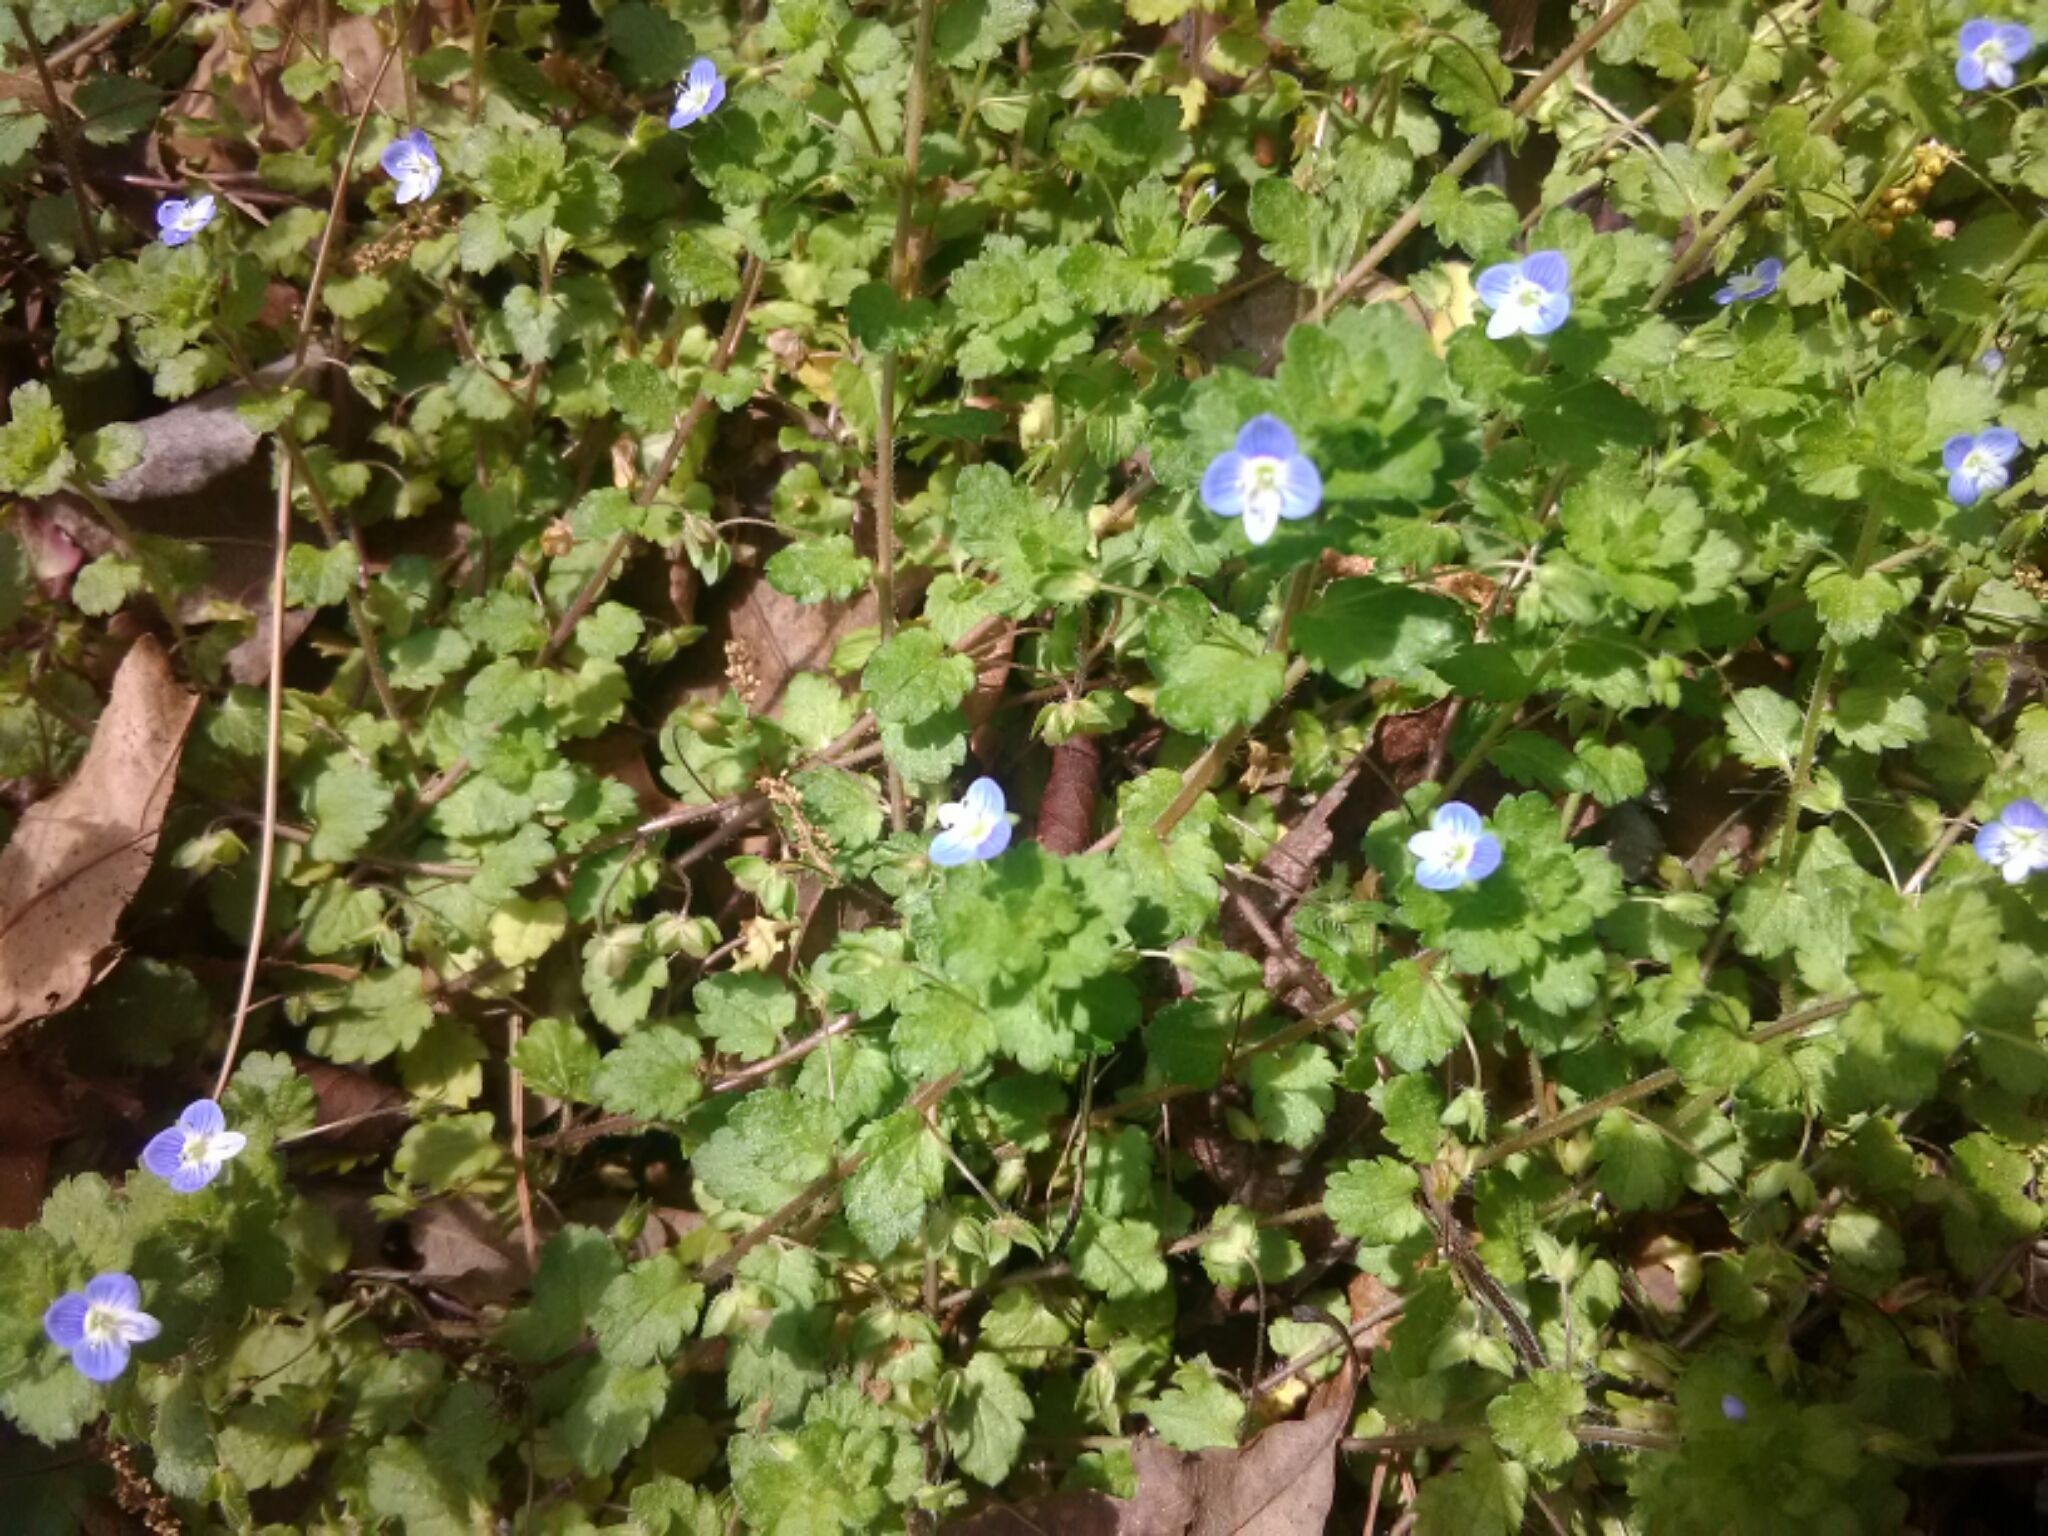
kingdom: Plantae
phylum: Tracheophyta
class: Magnoliopsida
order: Lamiales
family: Plantaginaceae
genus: Veronica
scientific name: Veronica persica
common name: Common field-speedwell
